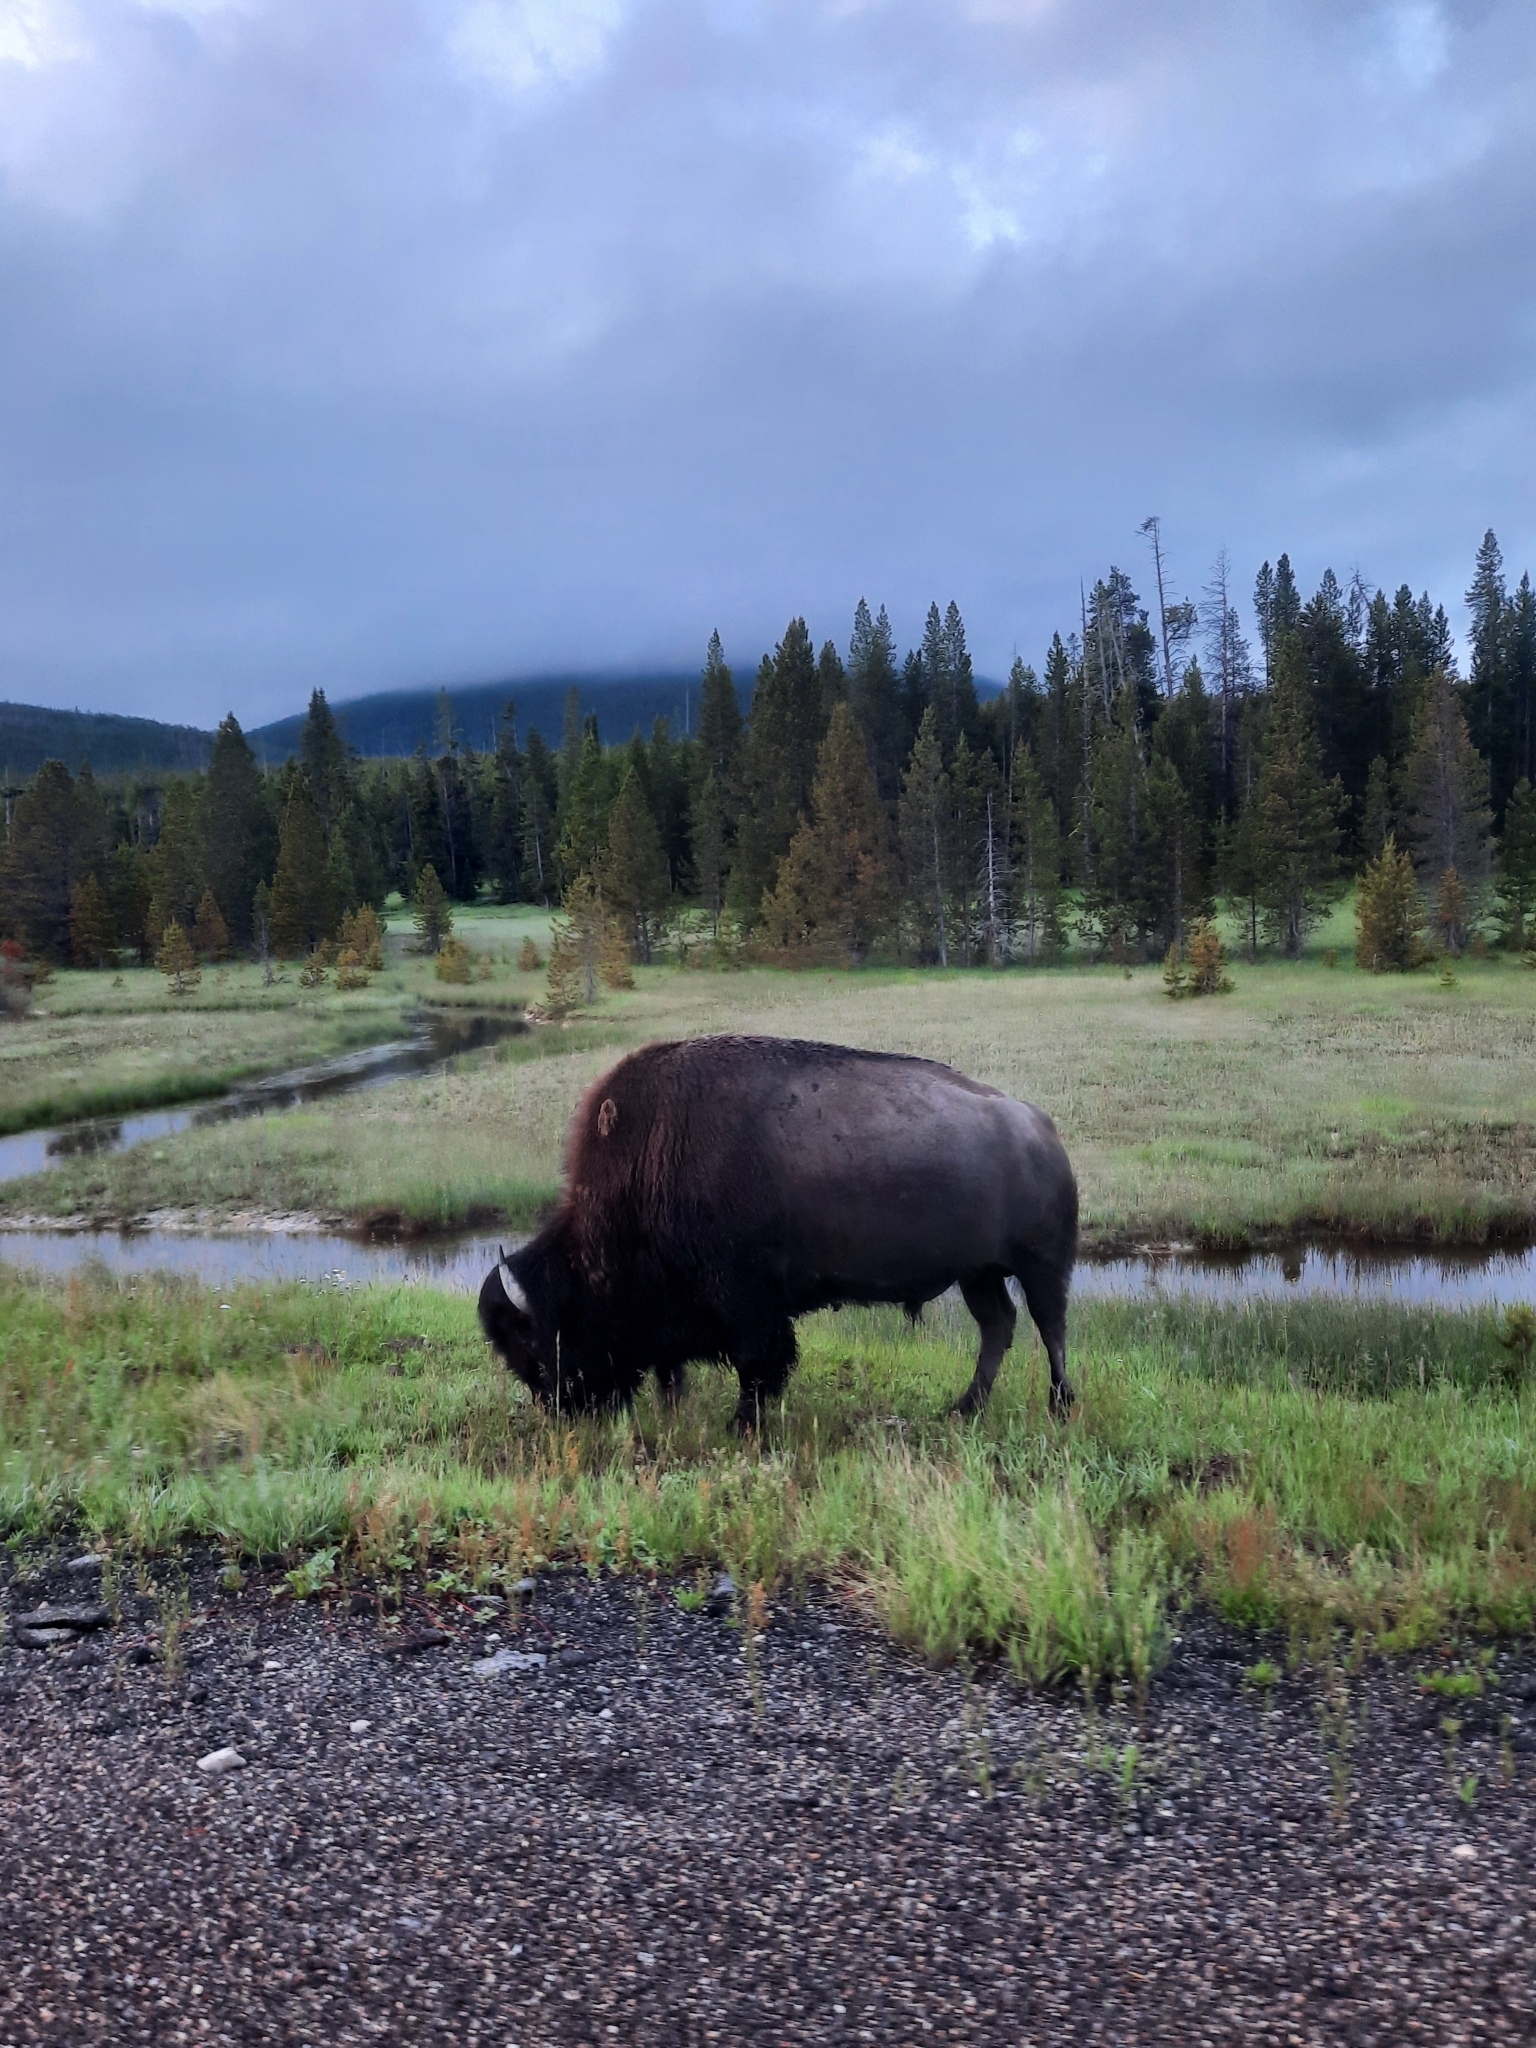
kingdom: Animalia
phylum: Chordata
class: Mammalia
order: Artiodactyla
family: Bovidae
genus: Bison
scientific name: Bison bison
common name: American bison
